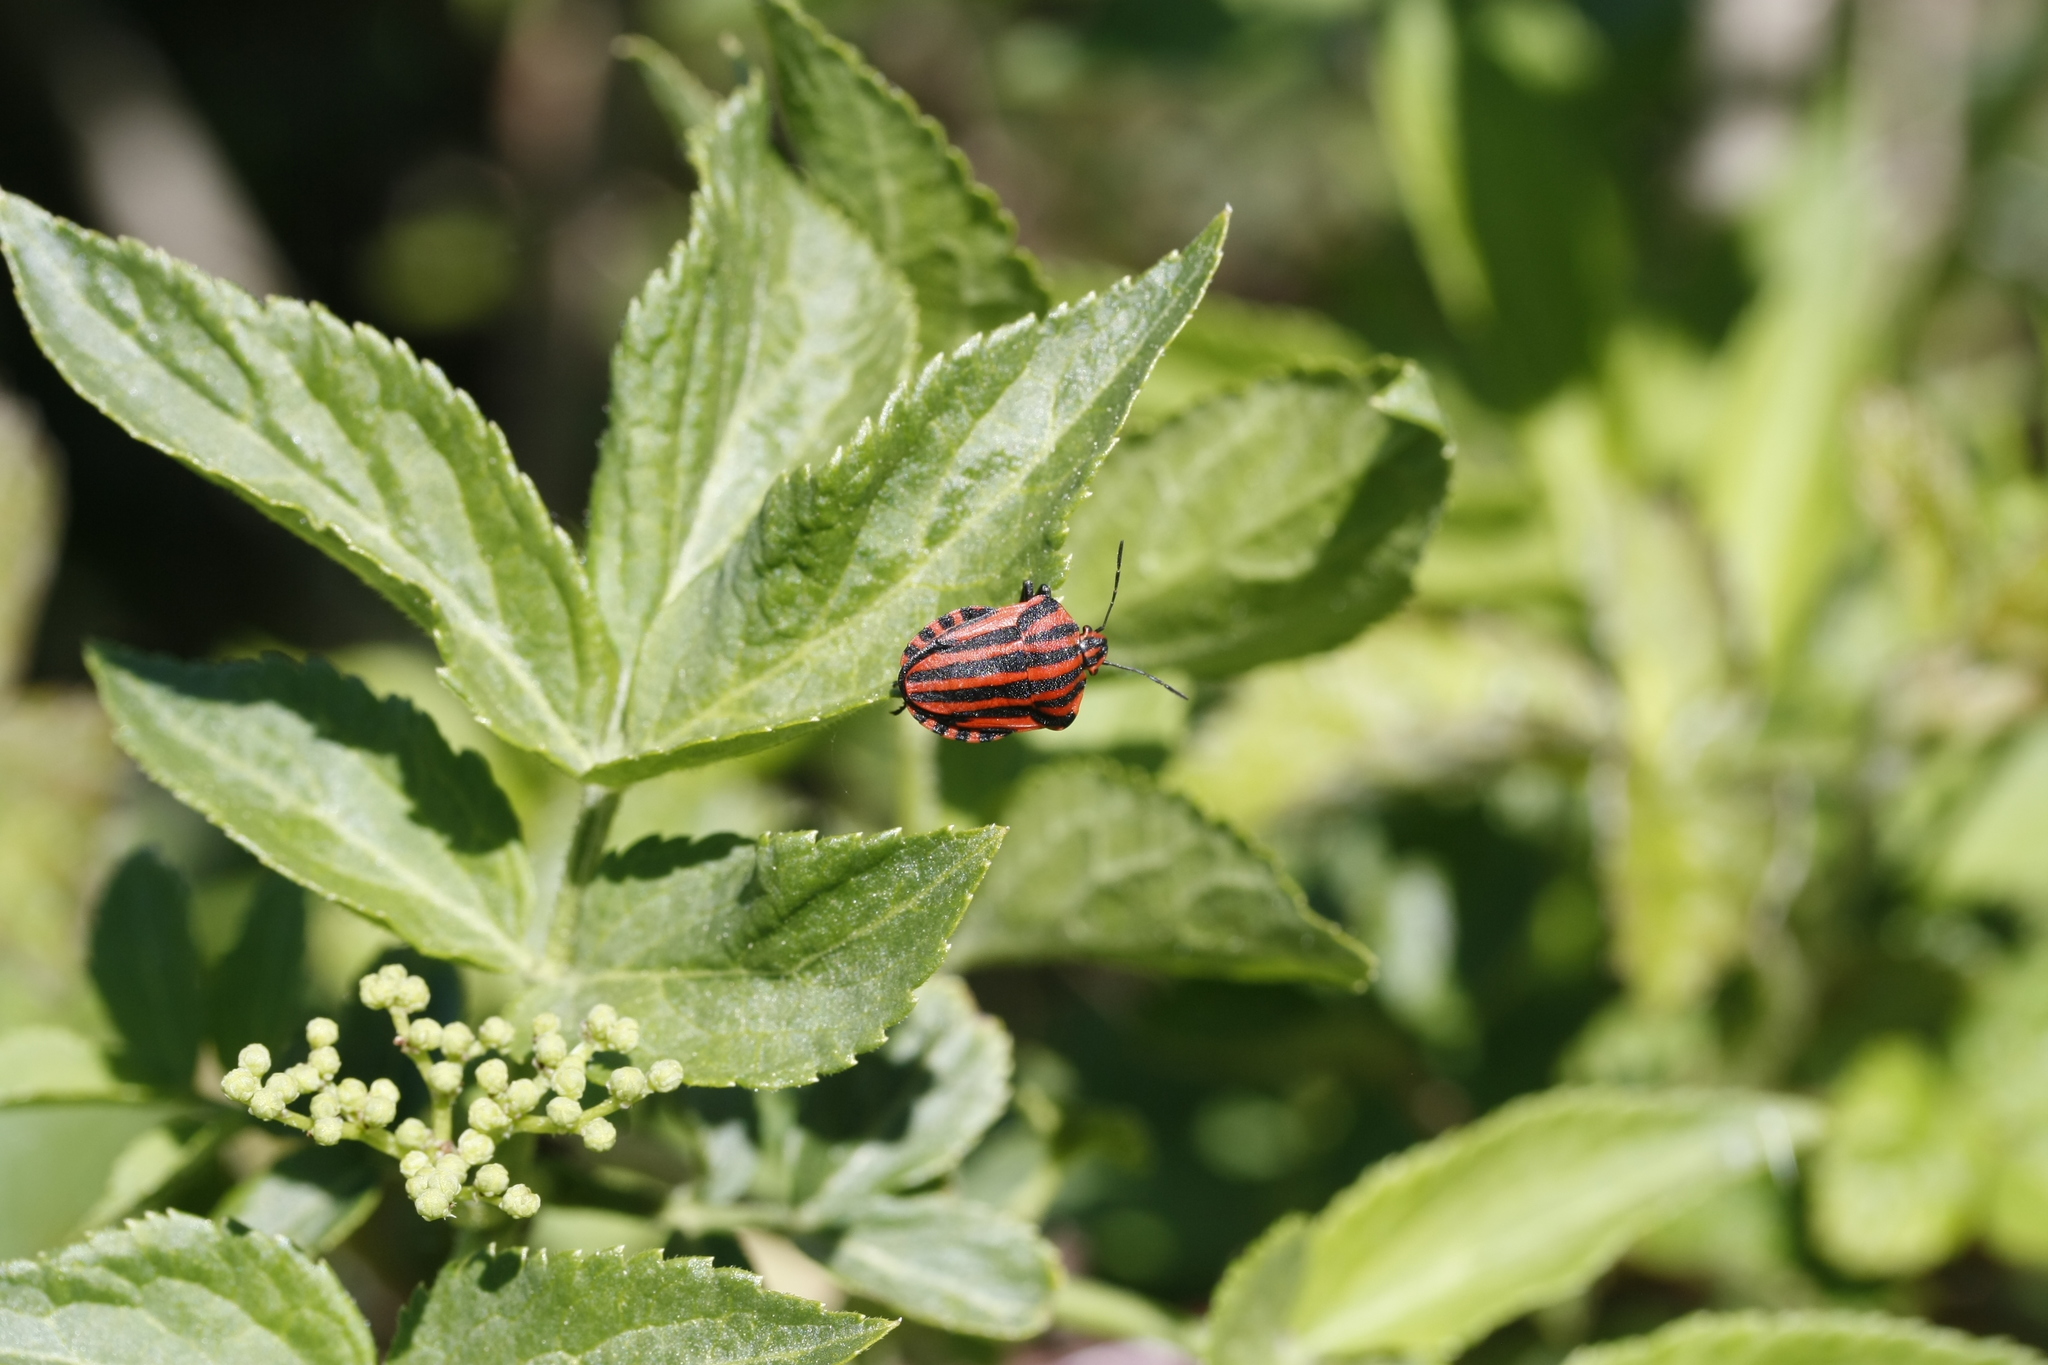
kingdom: Animalia
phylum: Arthropoda
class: Insecta
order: Hemiptera
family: Pentatomidae
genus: Graphosoma
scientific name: Graphosoma italicum
